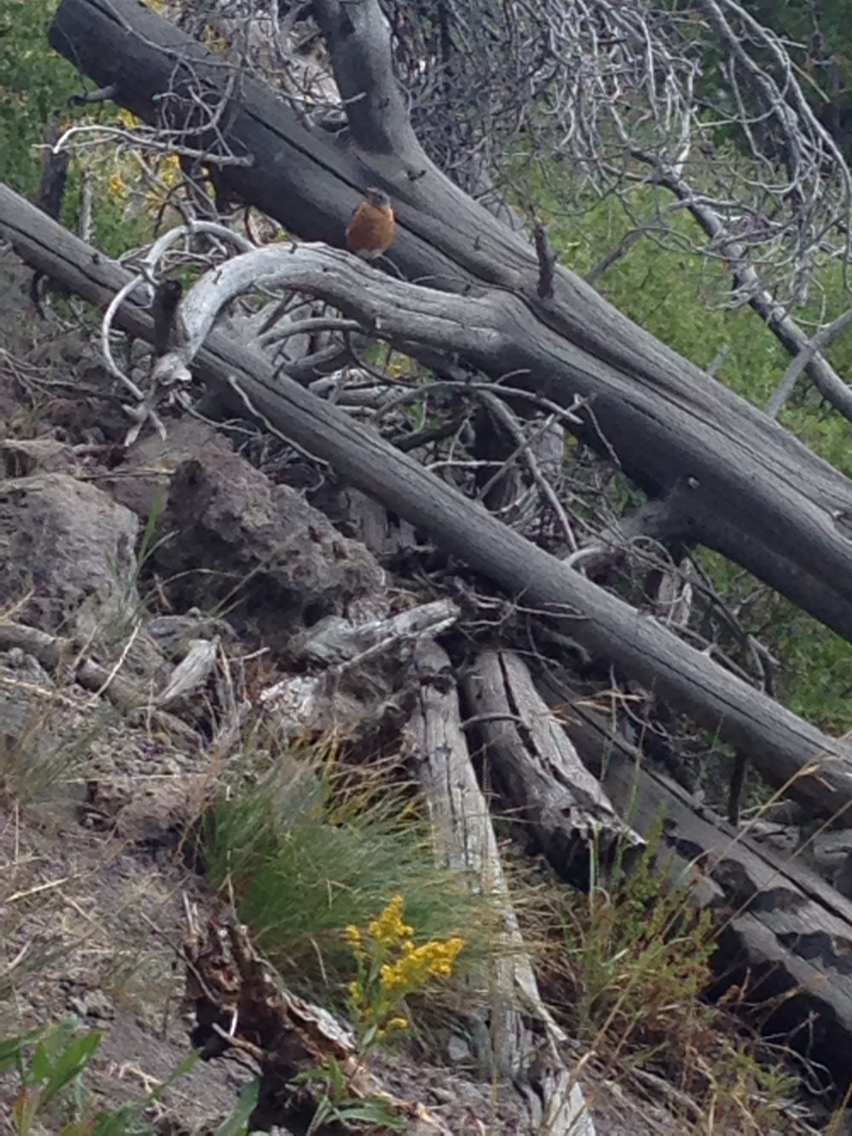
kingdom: Animalia
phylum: Chordata
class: Aves
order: Passeriformes
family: Turdidae
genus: Turdus
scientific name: Turdus migratorius
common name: American robin
